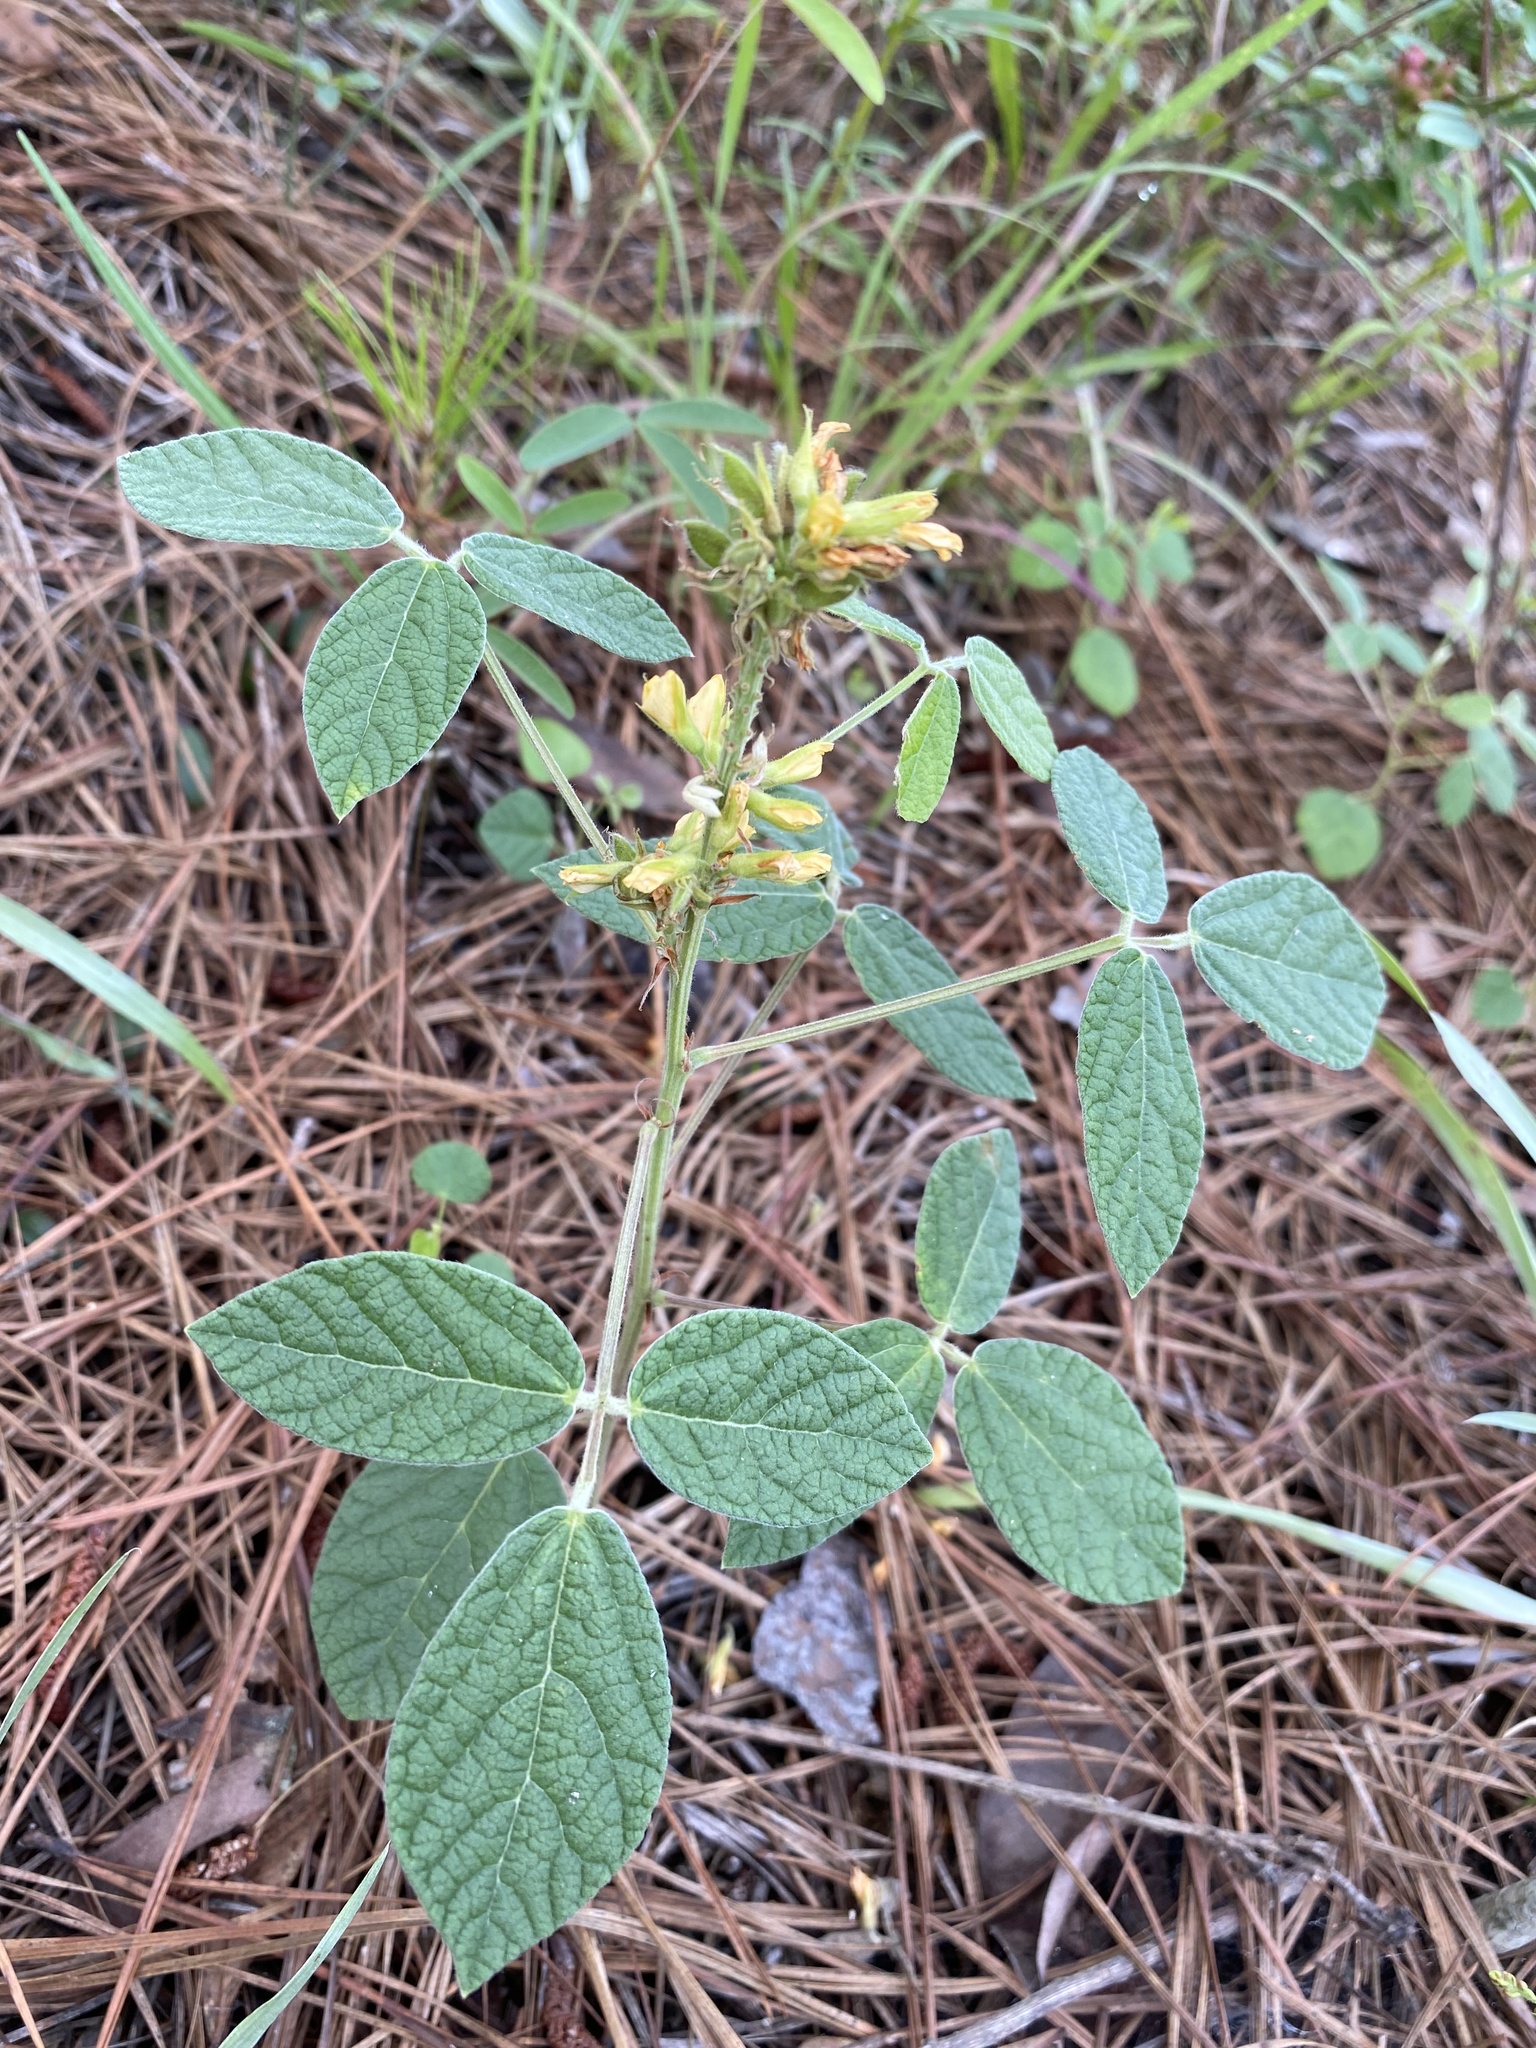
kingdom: Plantae
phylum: Tracheophyta
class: Magnoliopsida
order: Fabales
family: Fabaceae
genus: Rhynchosia
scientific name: Rhynchosia tomentosa
